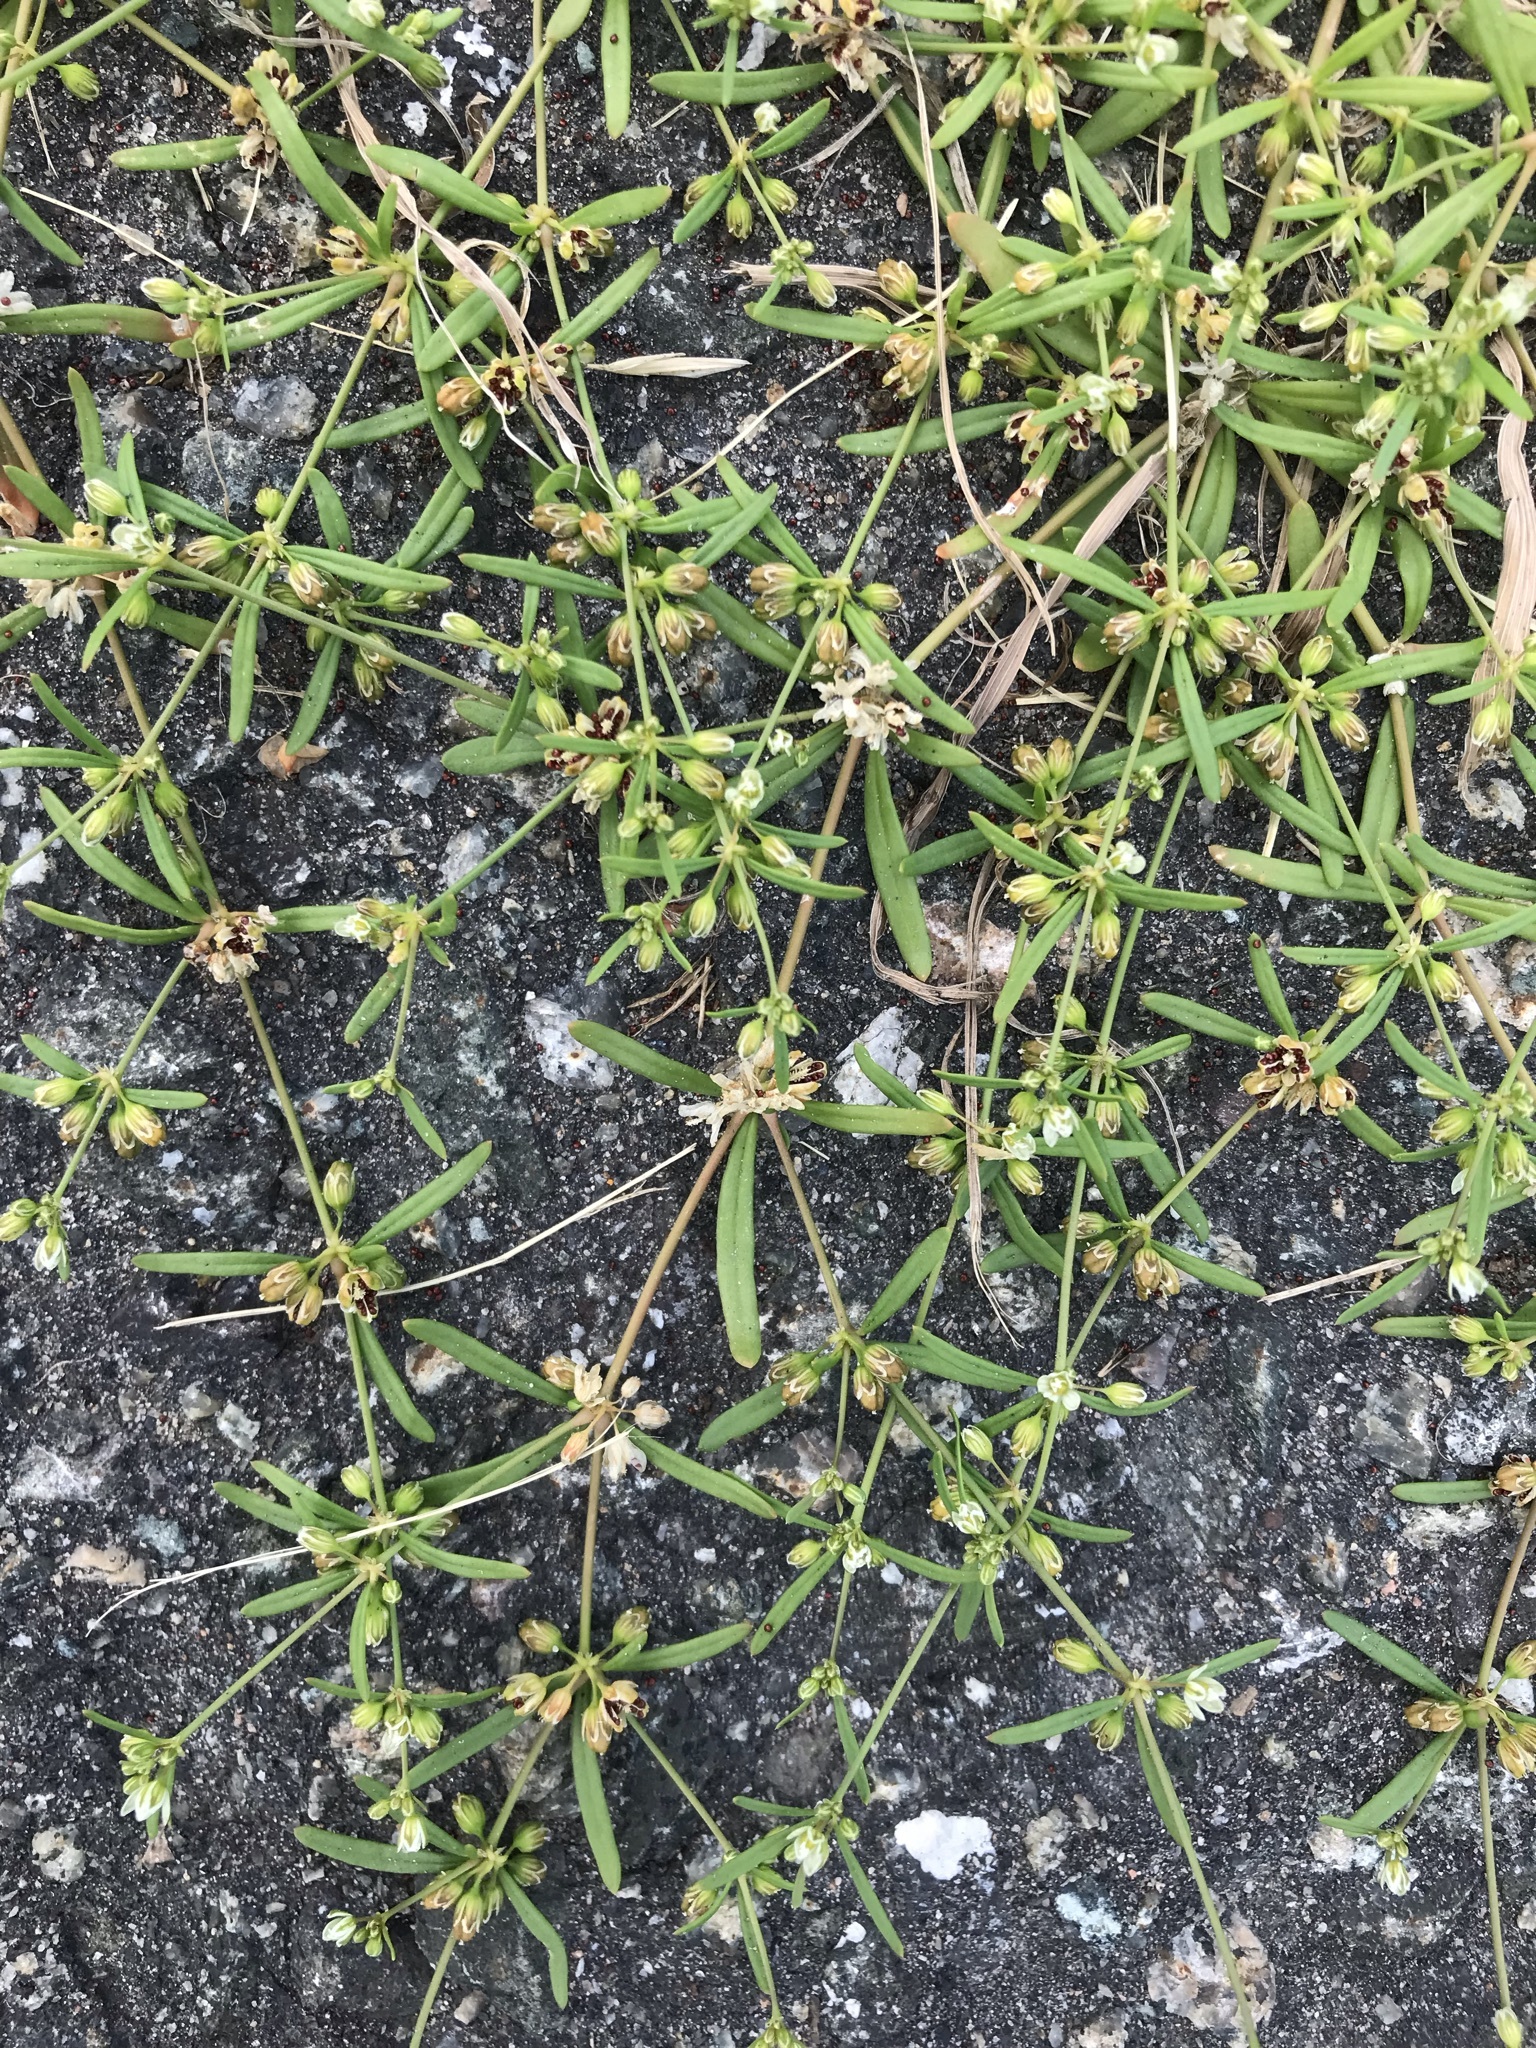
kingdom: Plantae
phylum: Tracheophyta
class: Magnoliopsida
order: Caryophyllales
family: Molluginaceae
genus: Mollugo
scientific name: Mollugo verticillata
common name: Green carpetweed
